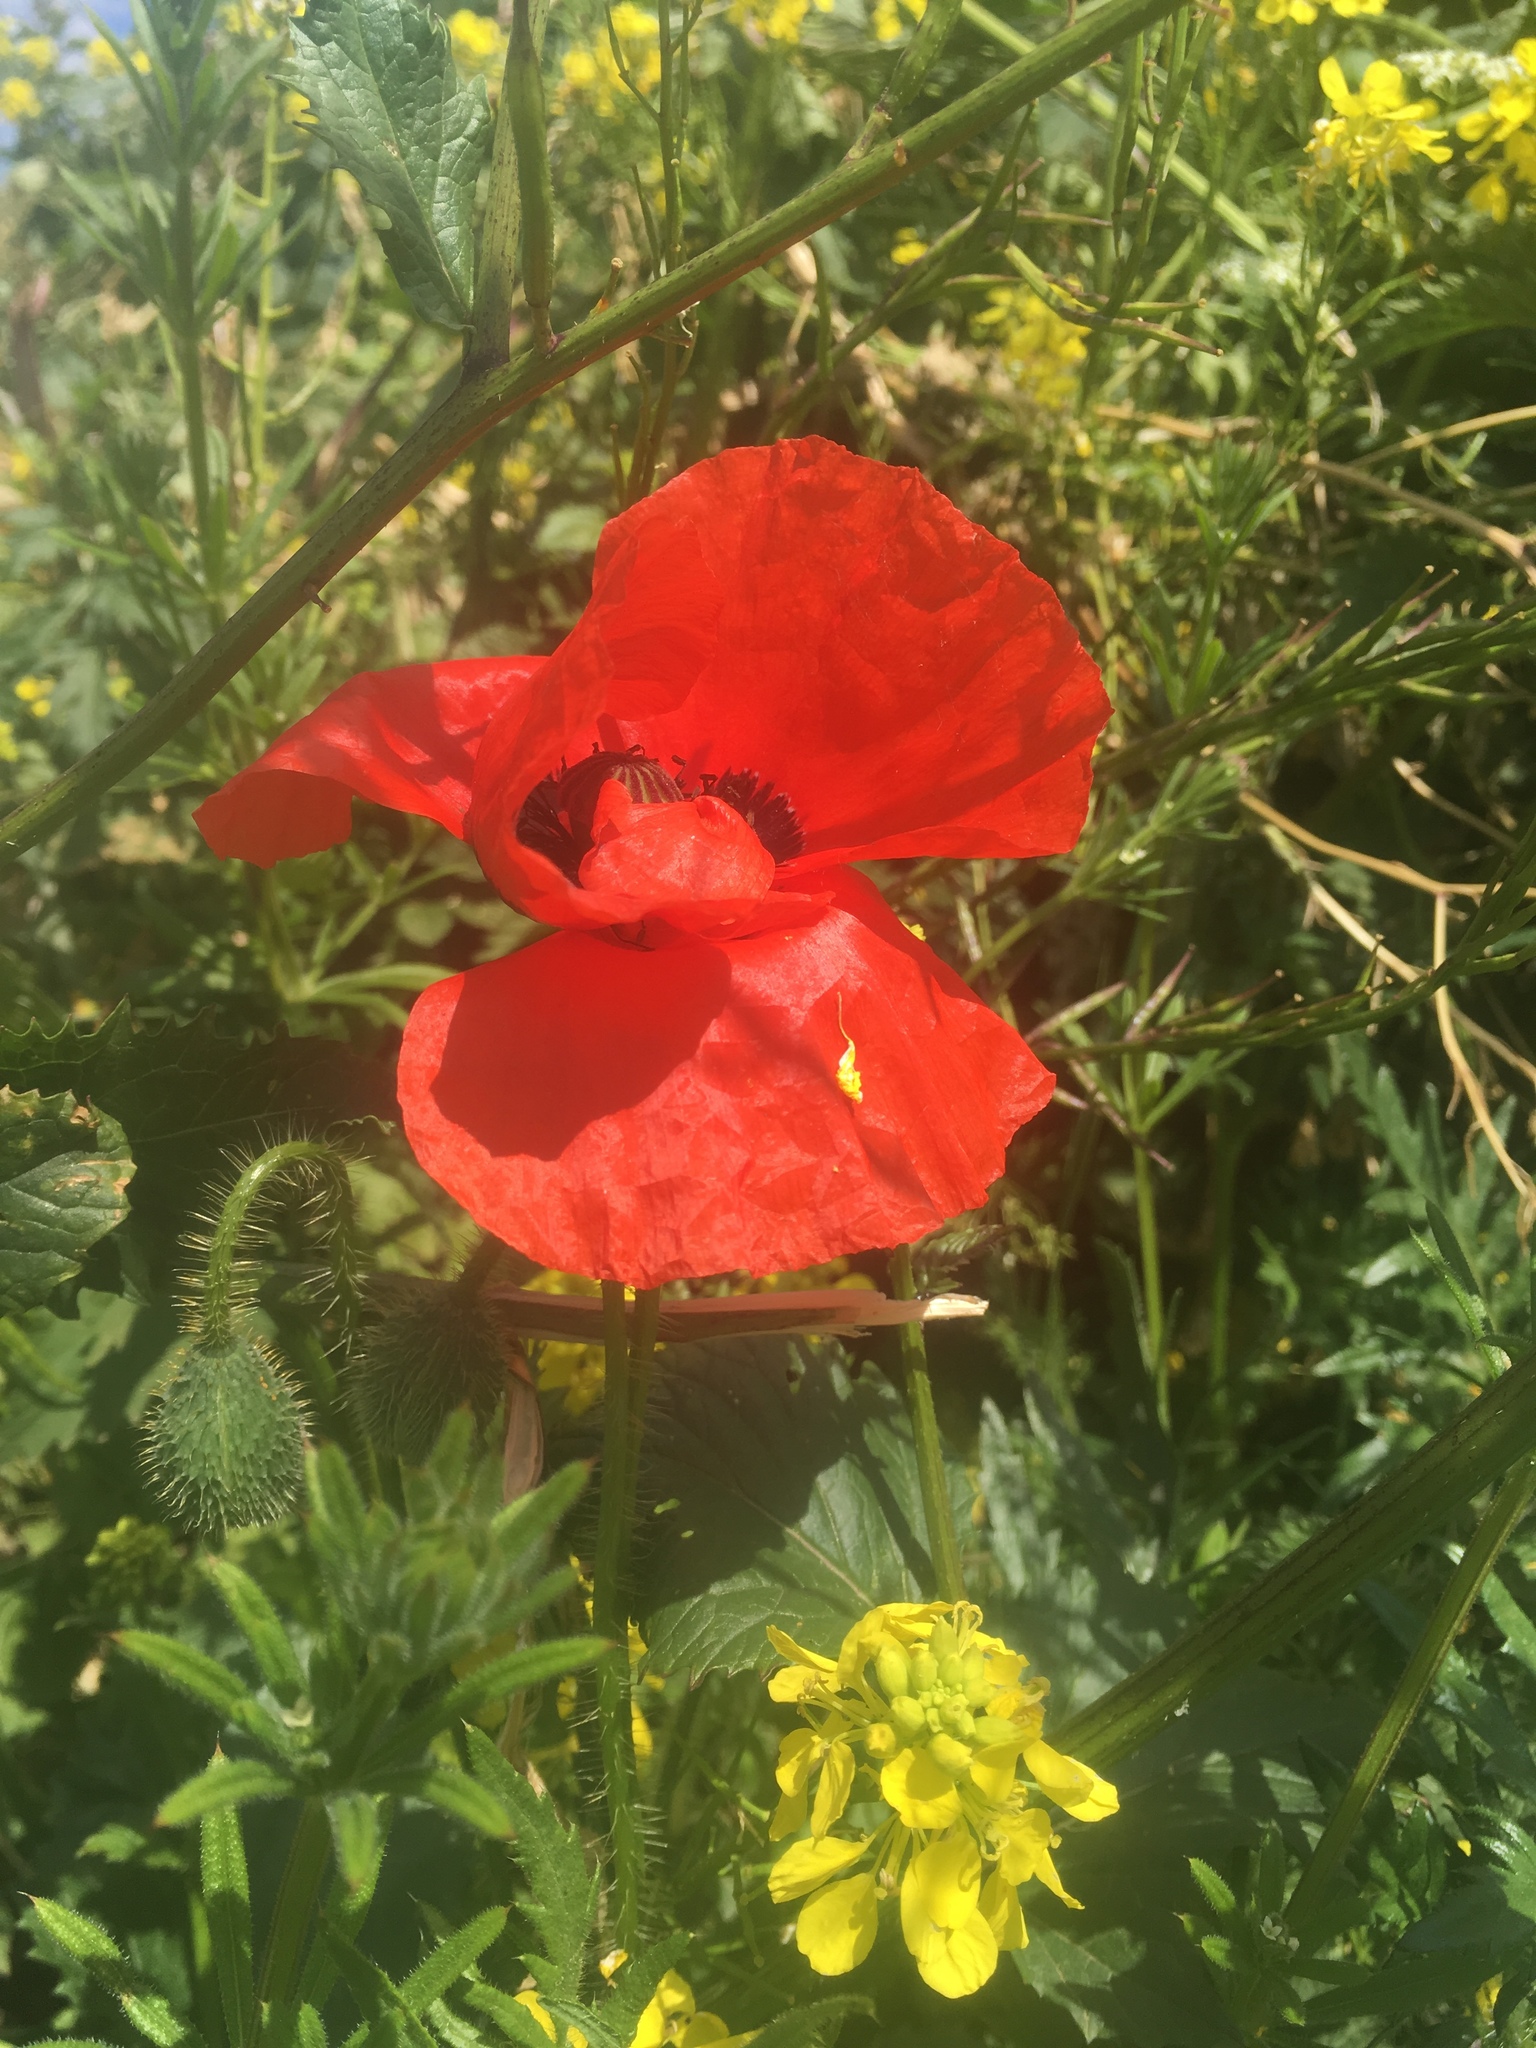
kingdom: Plantae
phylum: Tracheophyta
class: Magnoliopsida
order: Ranunculales
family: Papaveraceae
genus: Papaver
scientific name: Papaver rhoeas
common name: Corn poppy
